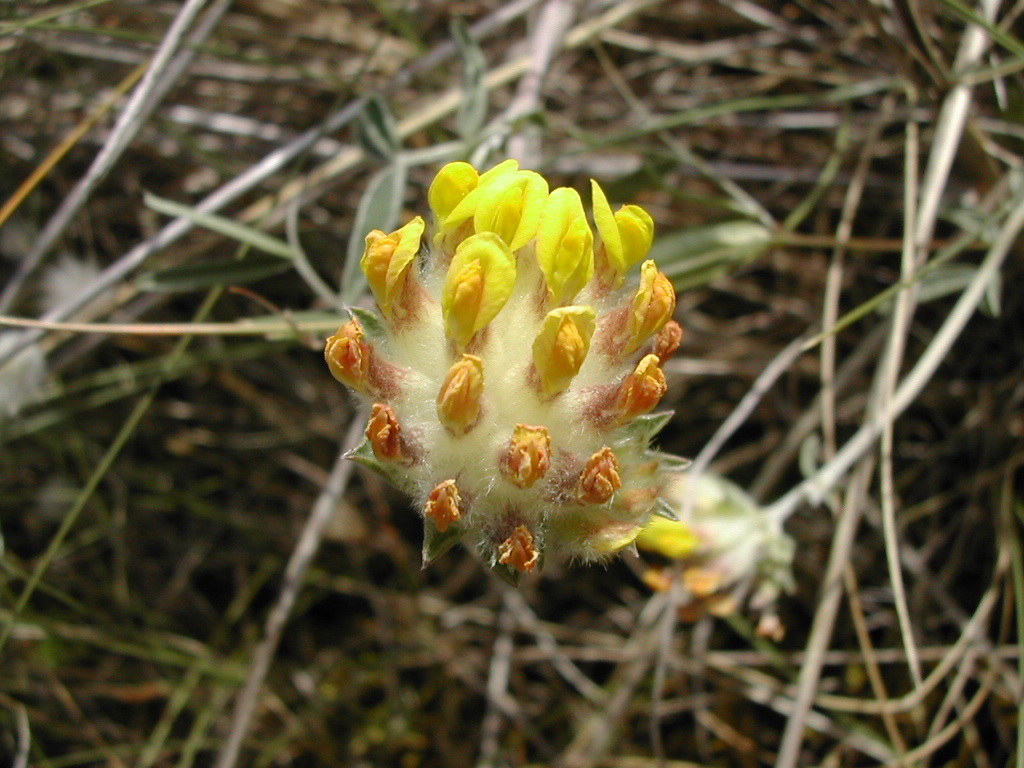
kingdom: Plantae
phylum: Tracheophyta
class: Magnoliopsida
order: Fabales
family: Fabaceae
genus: Anthyllis
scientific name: Anthyllis vulneraria
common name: Kidney vetch
